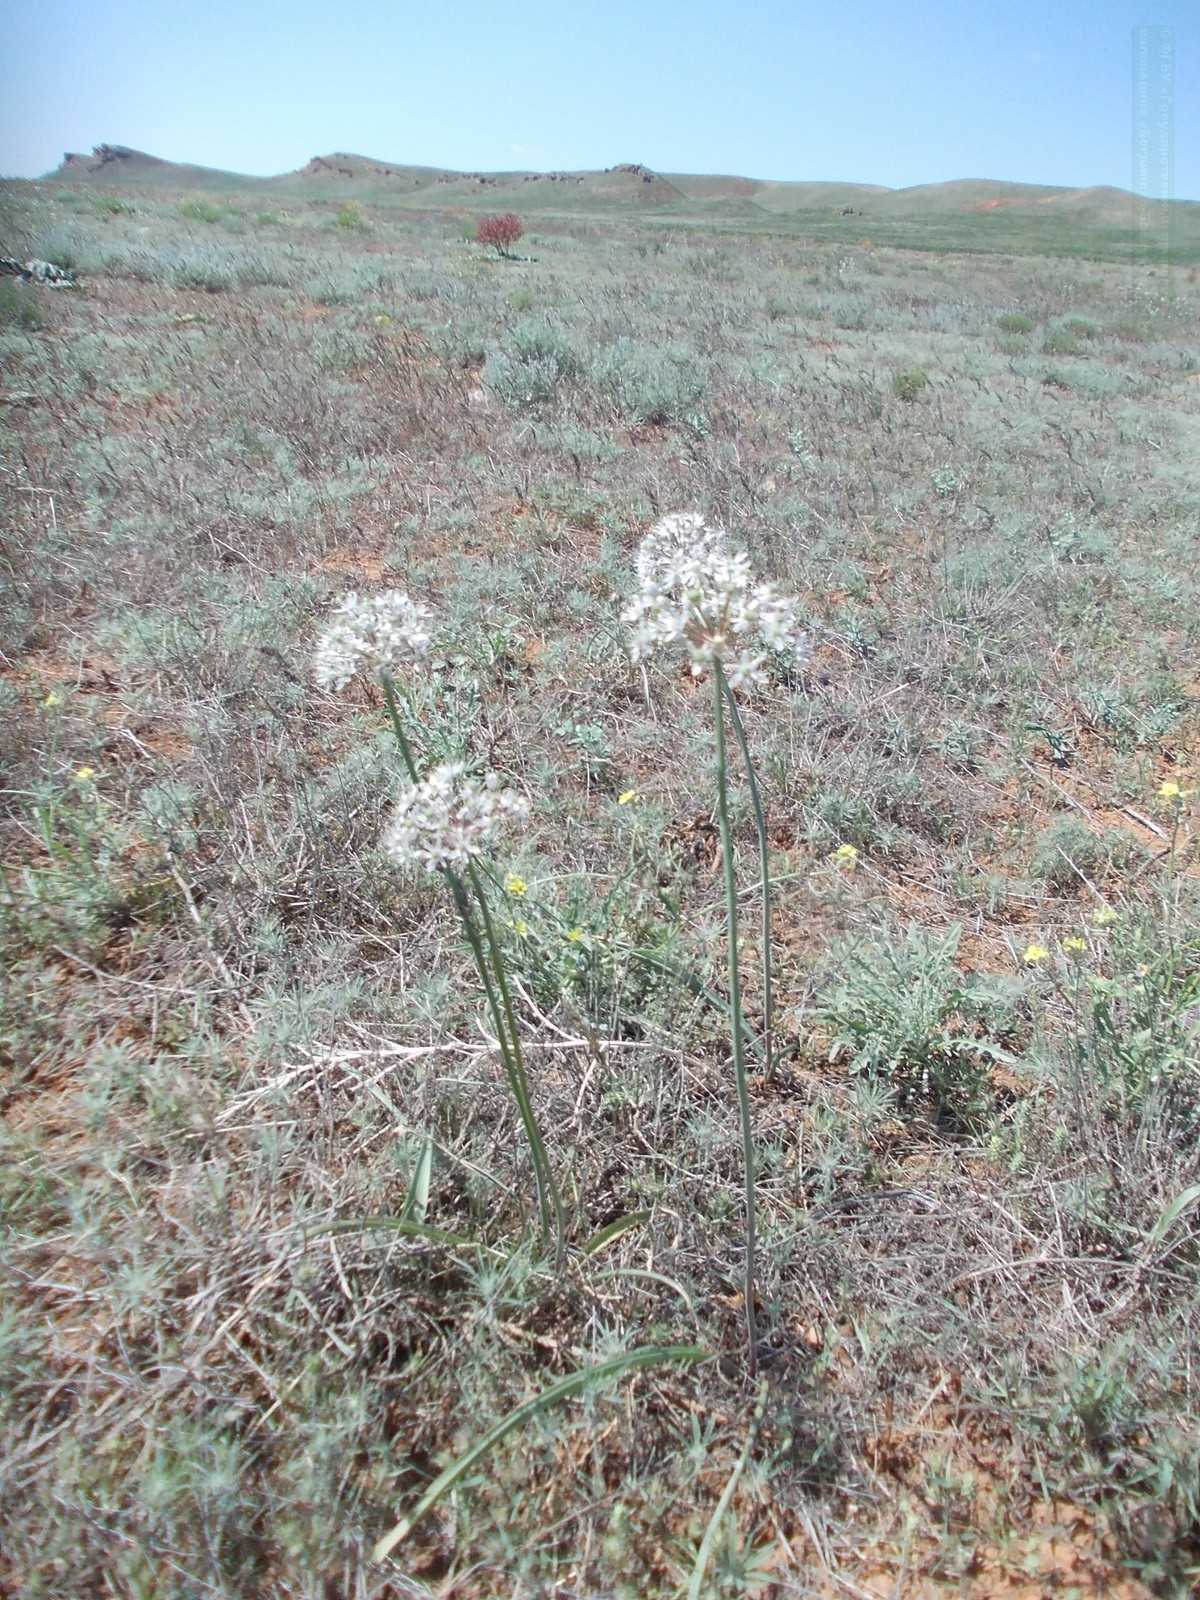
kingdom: Plantae
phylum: Tracheophyta
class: Liliopsida
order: Asparagales
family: Amaryllidaceae
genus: Allium
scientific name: Allium tulipifolium
